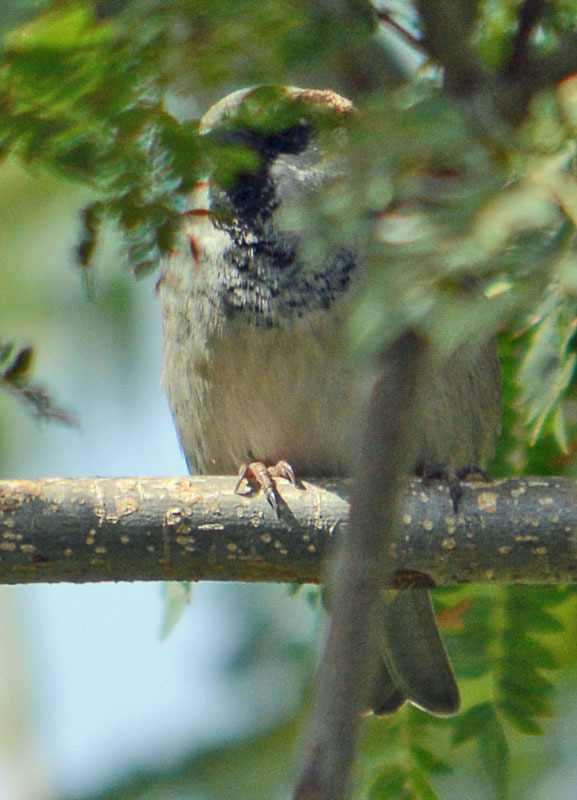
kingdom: Animalia
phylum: Chordata
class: Aves
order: Passeriformes
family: Passeridae
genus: Passer
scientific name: Passer domesticus
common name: House sparrow
